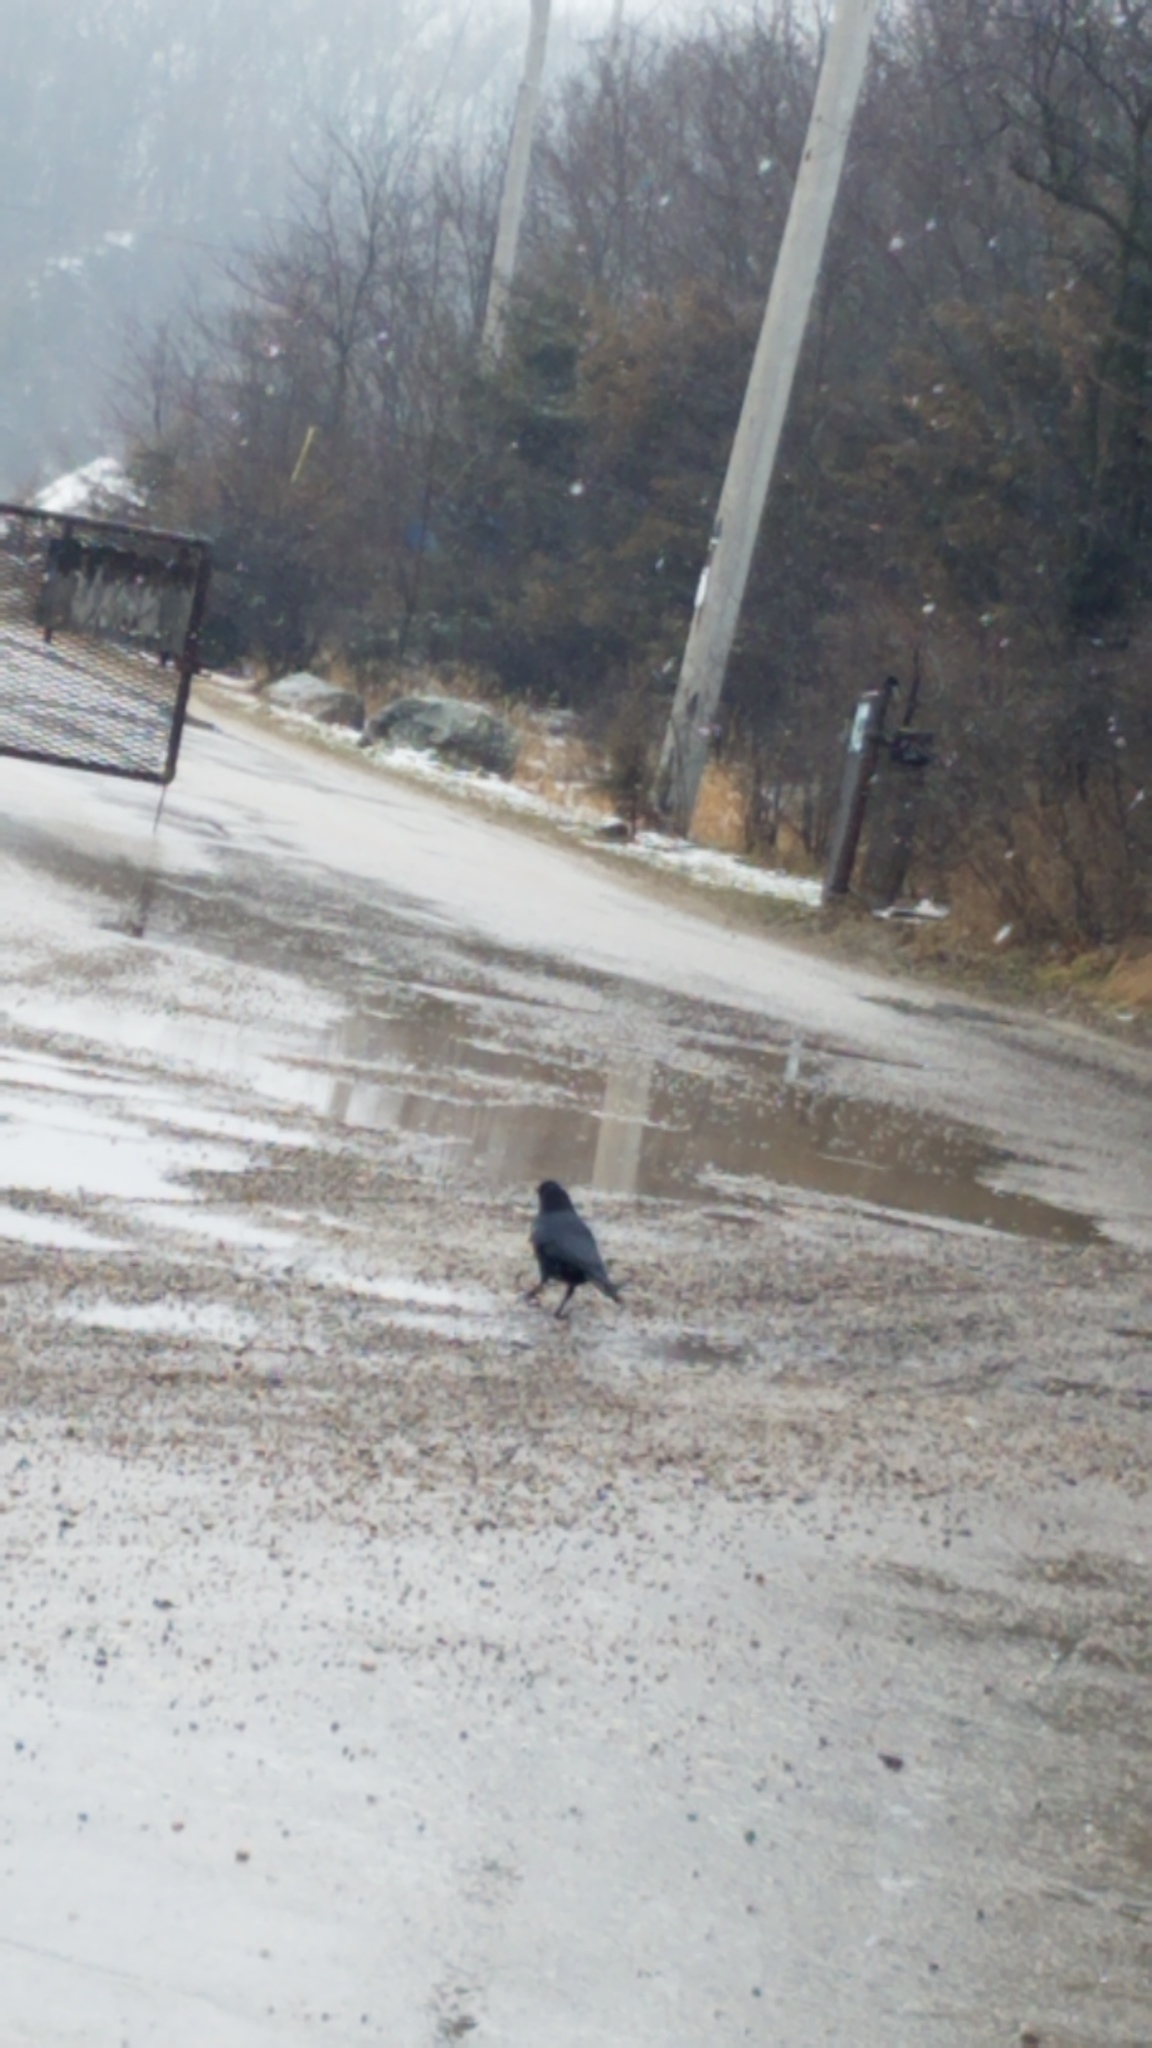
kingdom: Animalia
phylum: Chordata
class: Aves
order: Passeriformes
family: Corvidae
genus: Corvus
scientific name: Corvus brachyrhynchos
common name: American crow
